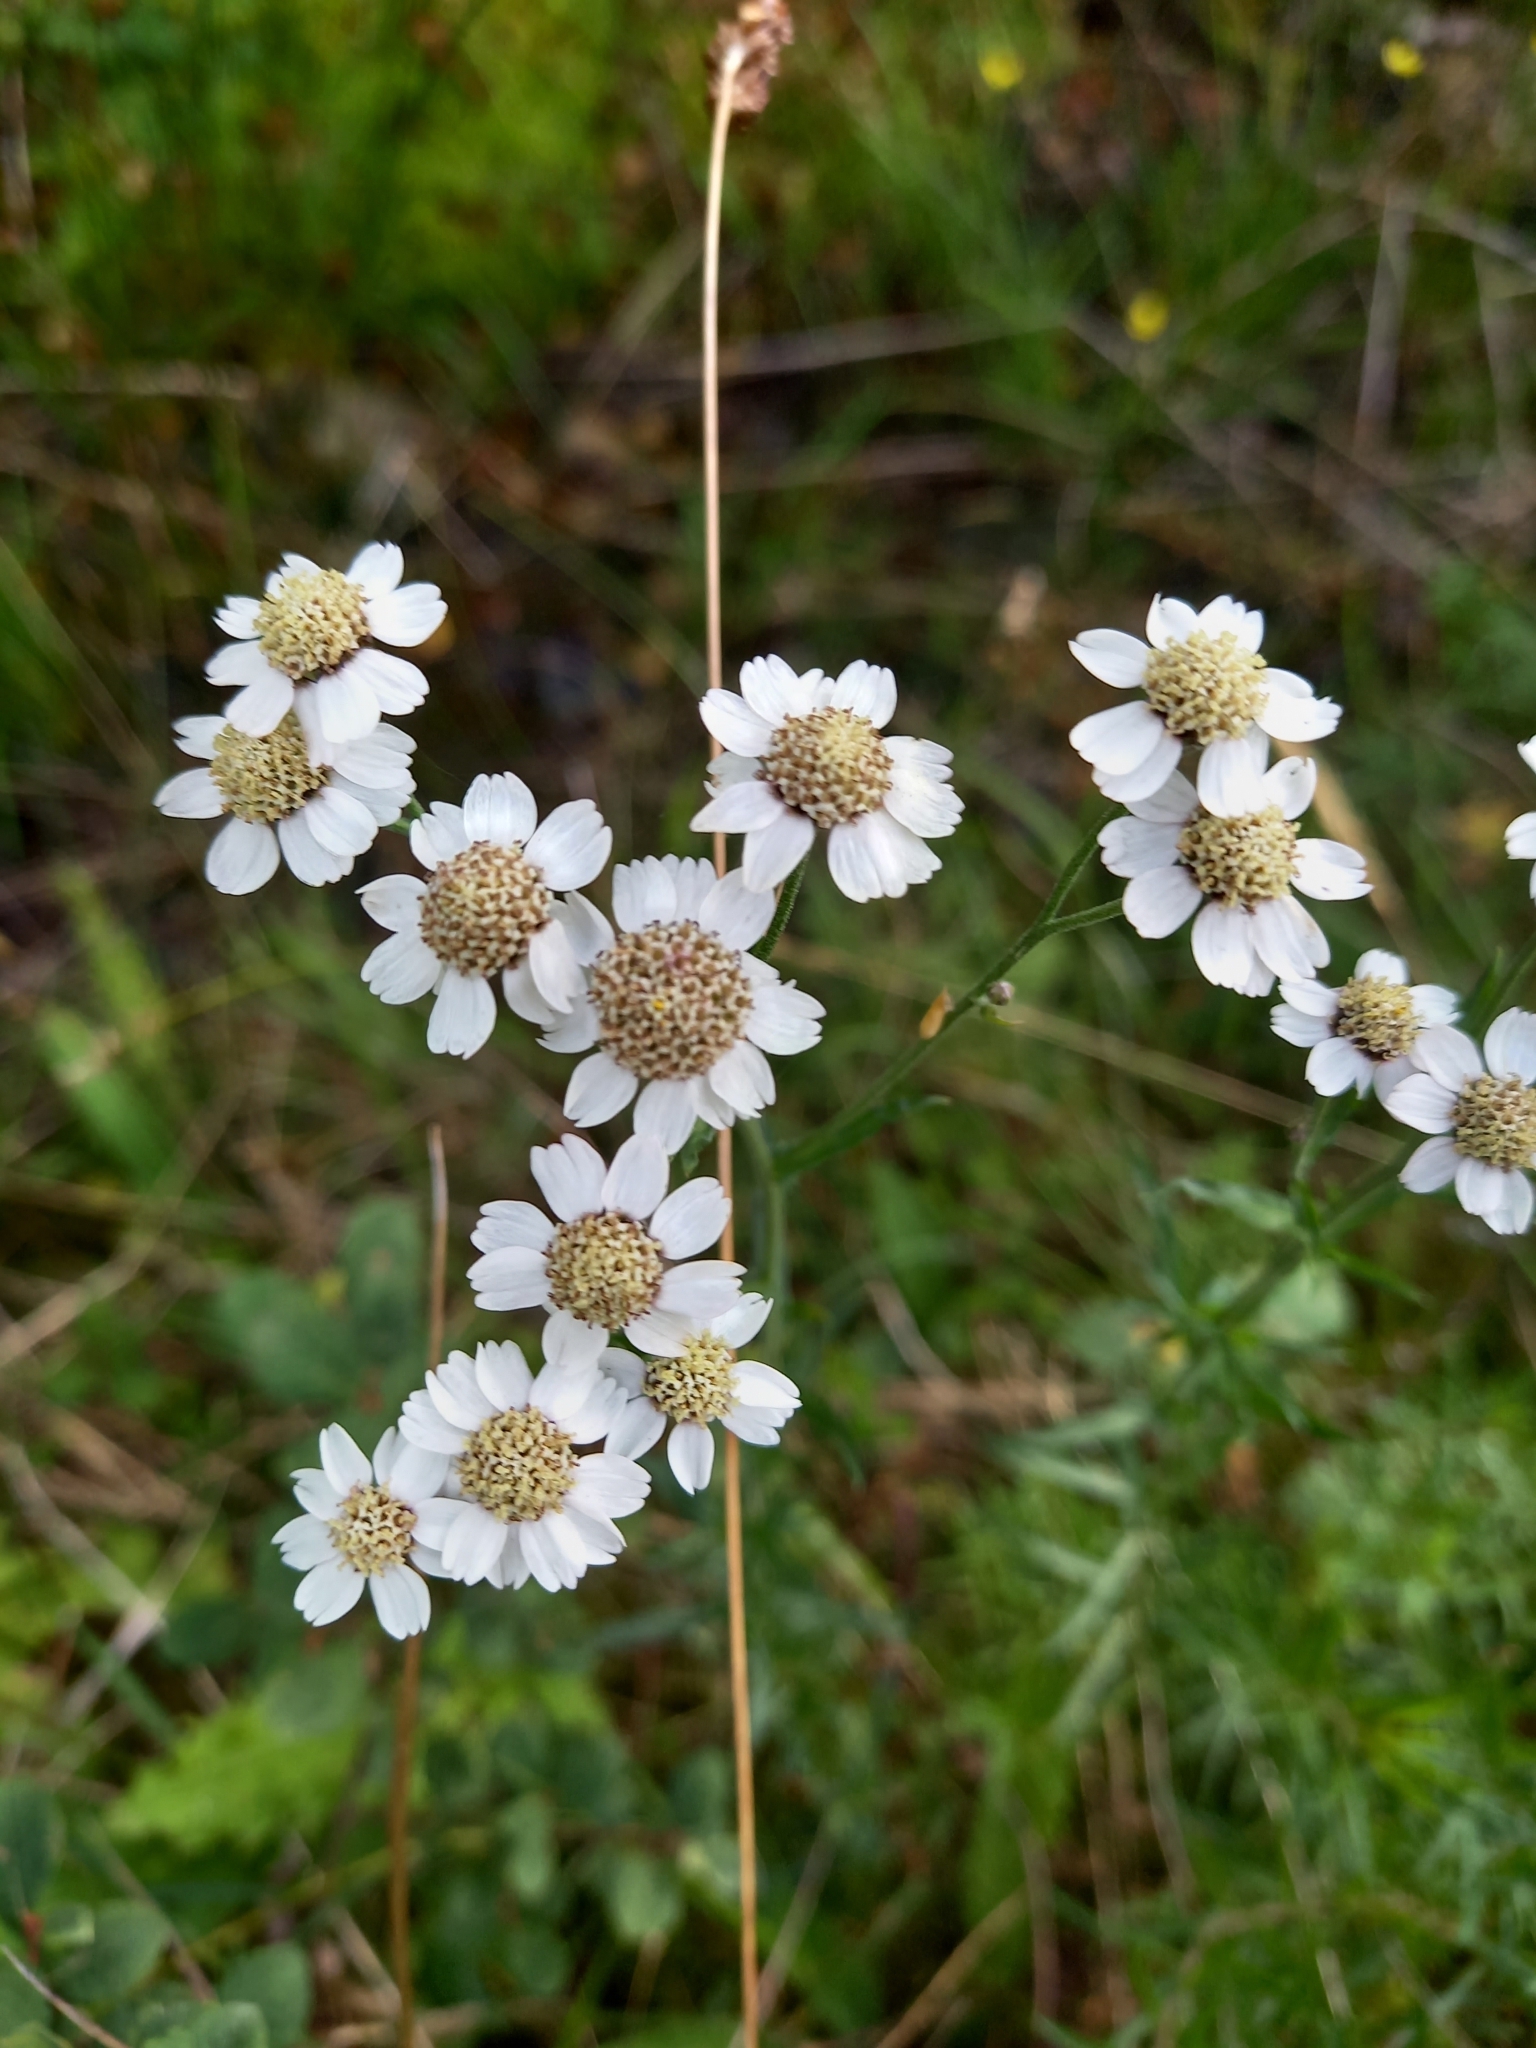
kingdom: Plantae
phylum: Tracheophyta
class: Magnoliopsida
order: Asterales
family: Asteraceae
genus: Achillea
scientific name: Achillea ptarmica
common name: Sneezeweed
